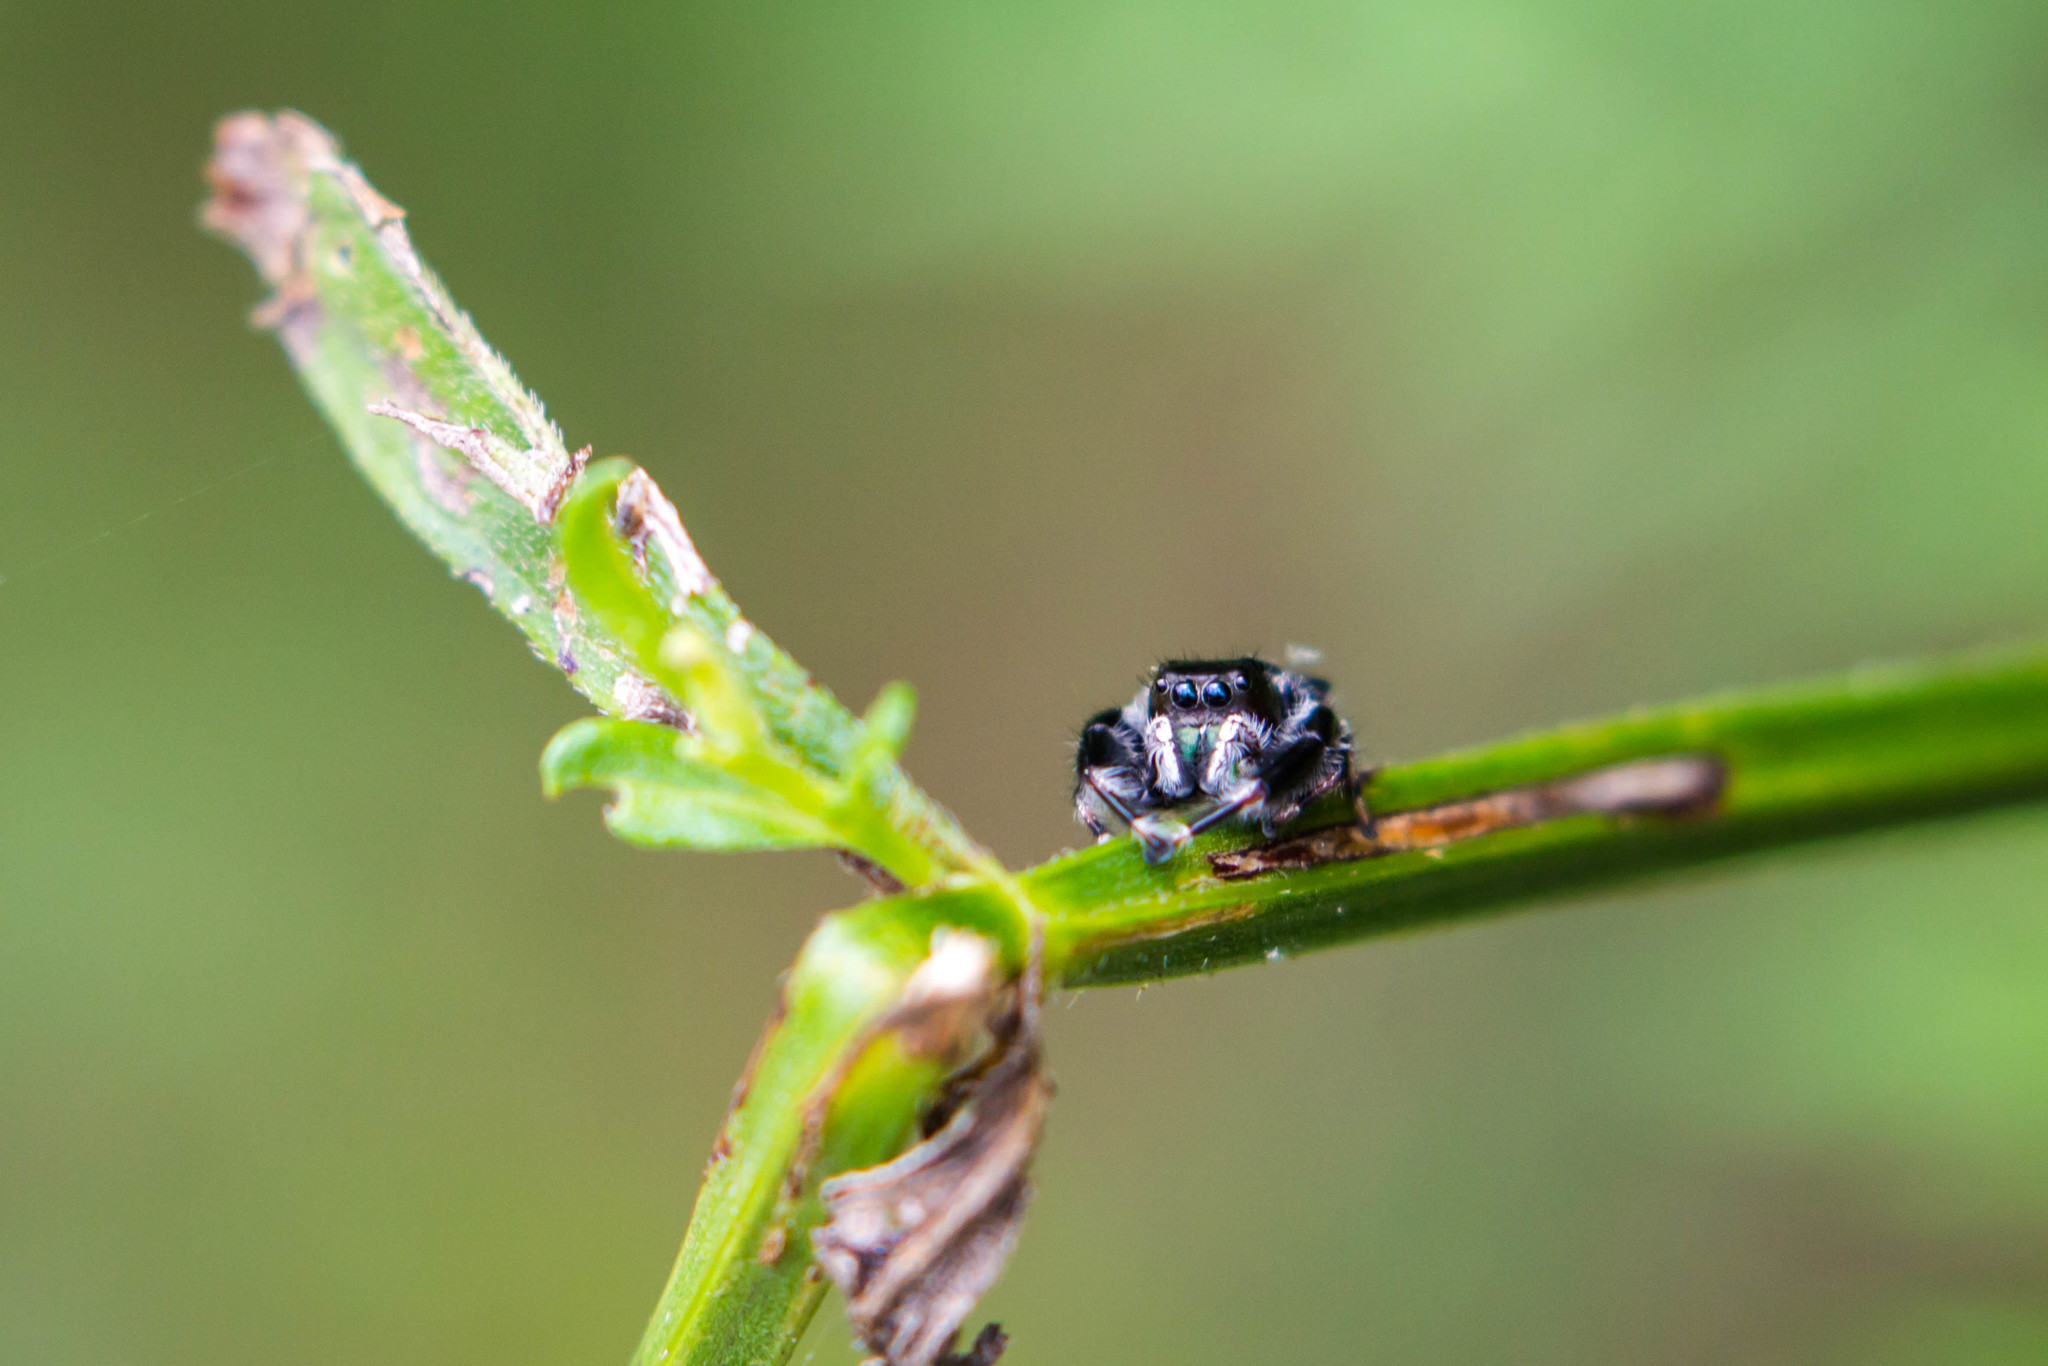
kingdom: Animalia
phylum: Arthropoda
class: Arachnida
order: Araneae
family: Salticidae
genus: Phidippus
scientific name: Phidippus clarus
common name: Brilliant jumping spider
